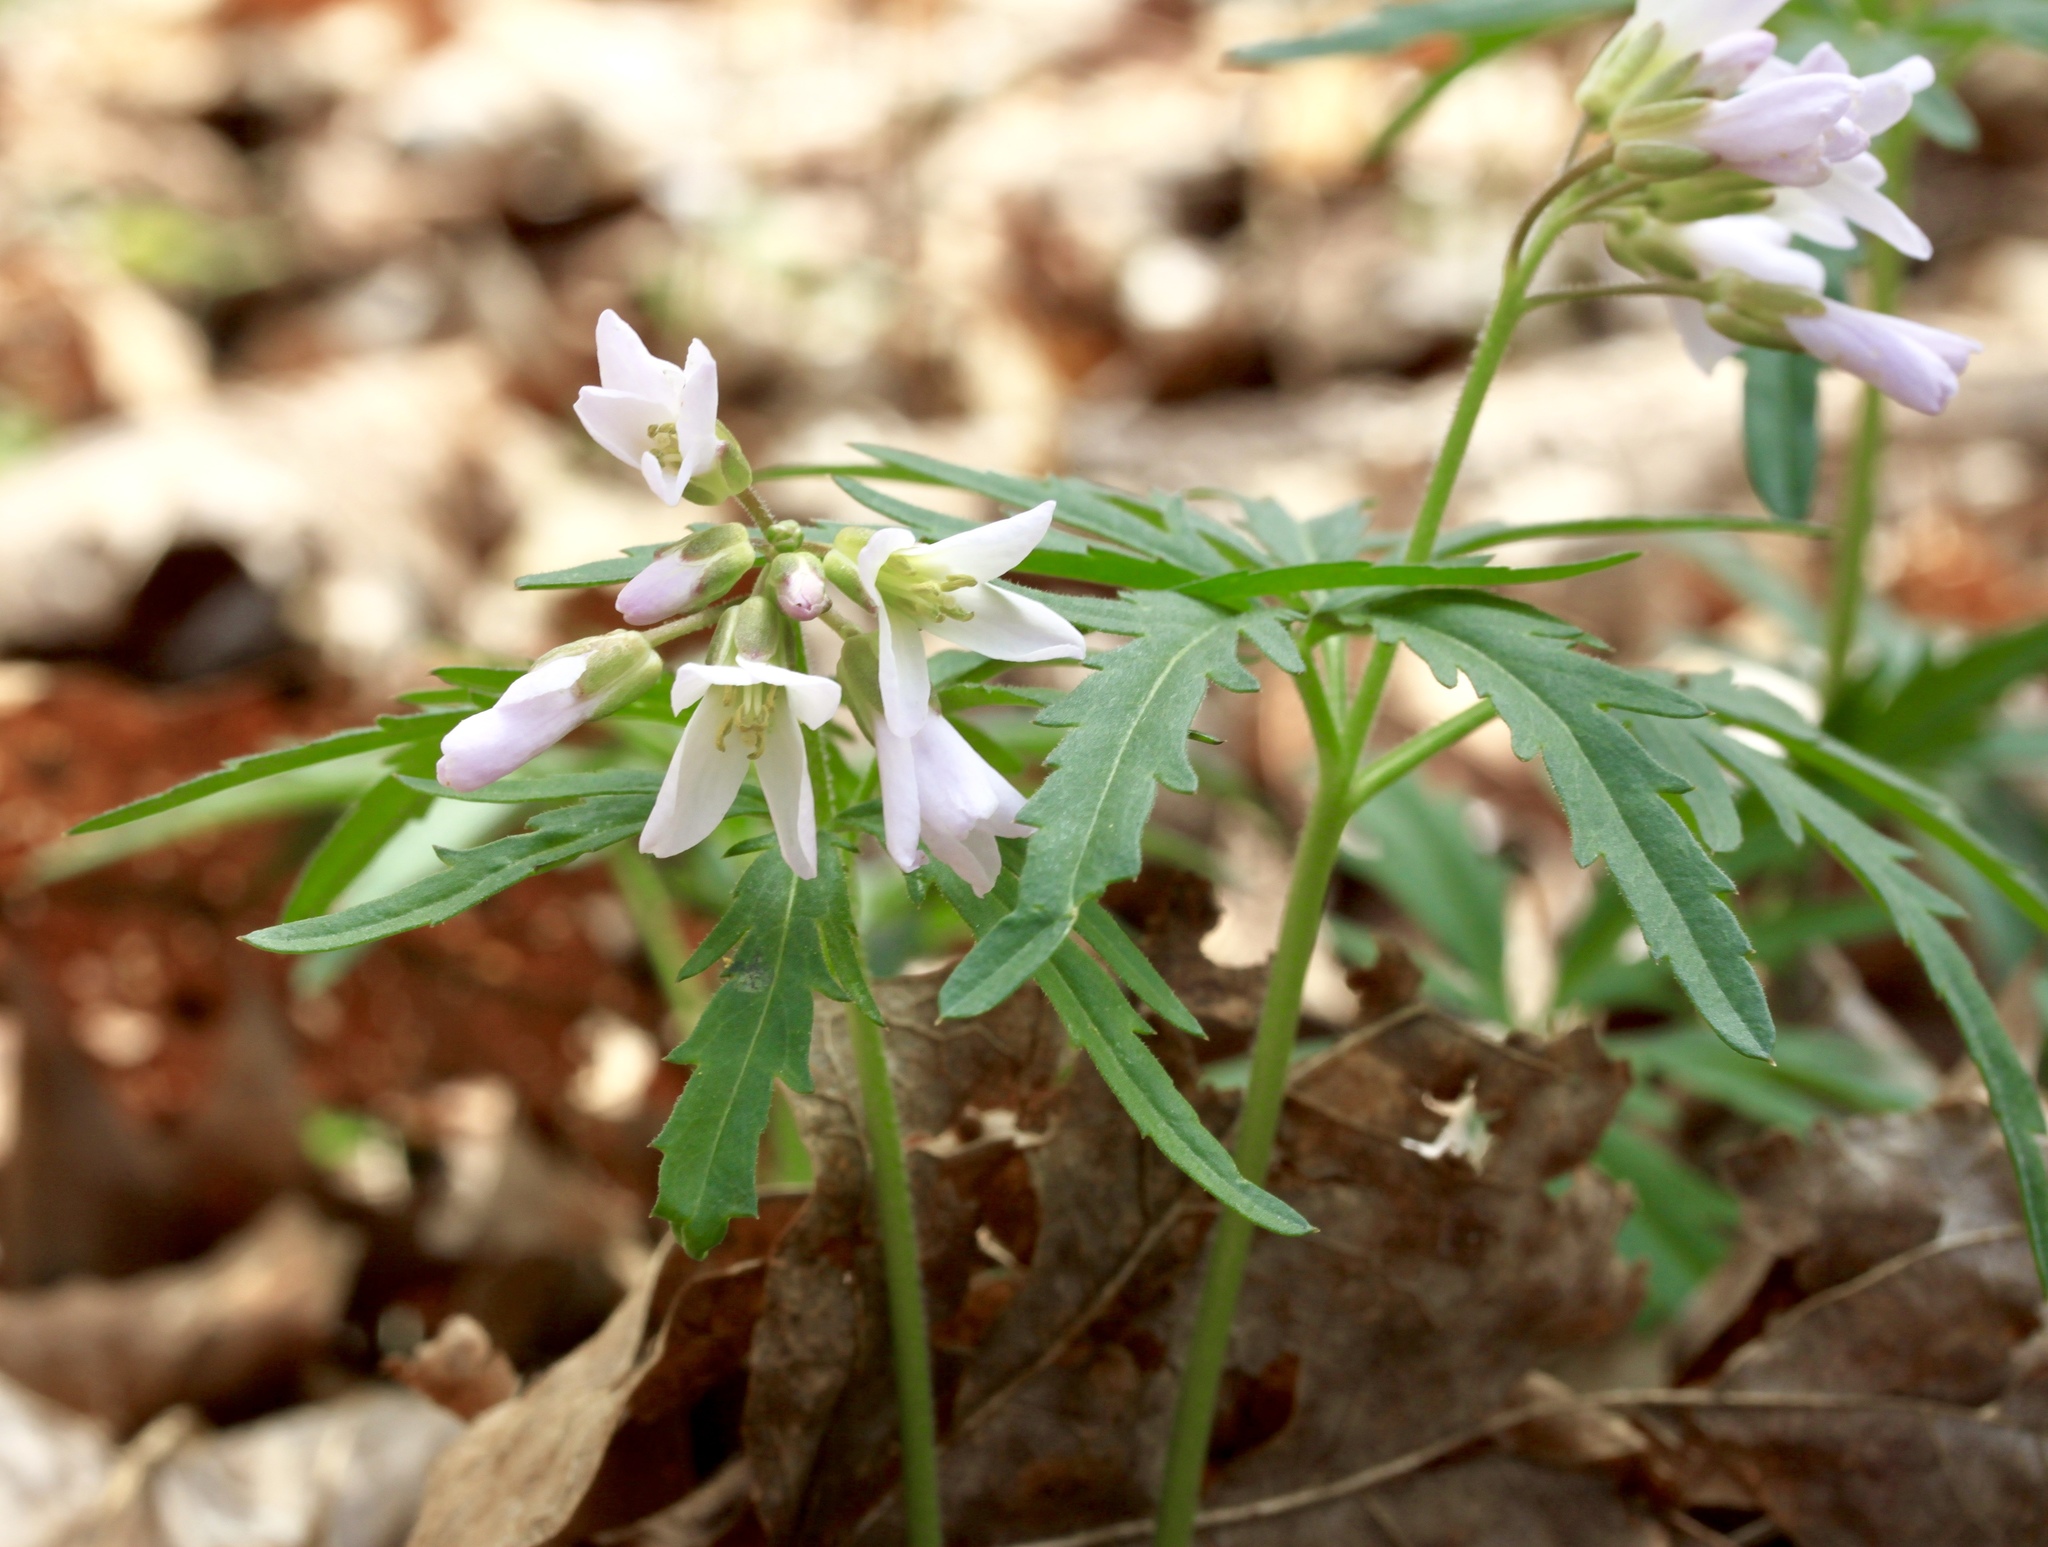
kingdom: Plantae
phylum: Tracheophyta
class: Magnoliopsida
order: Brassicales
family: Brassicaceae
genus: Cardamine
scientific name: Cardamine concatenata
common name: Cut-leaf toothcup
